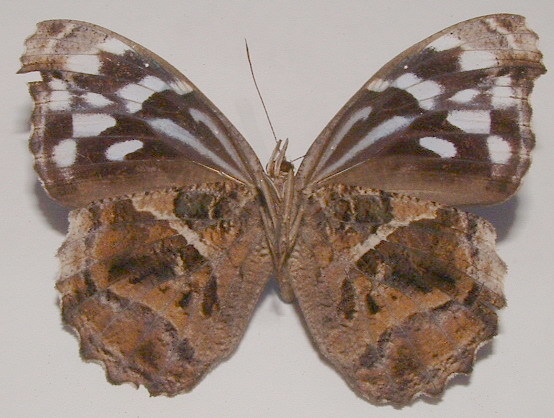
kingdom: Animalia
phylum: Arthropoda
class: Insecta
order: Lepidoptera
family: Nymphalidae
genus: Myscelia
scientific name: Myscelia ethusa
